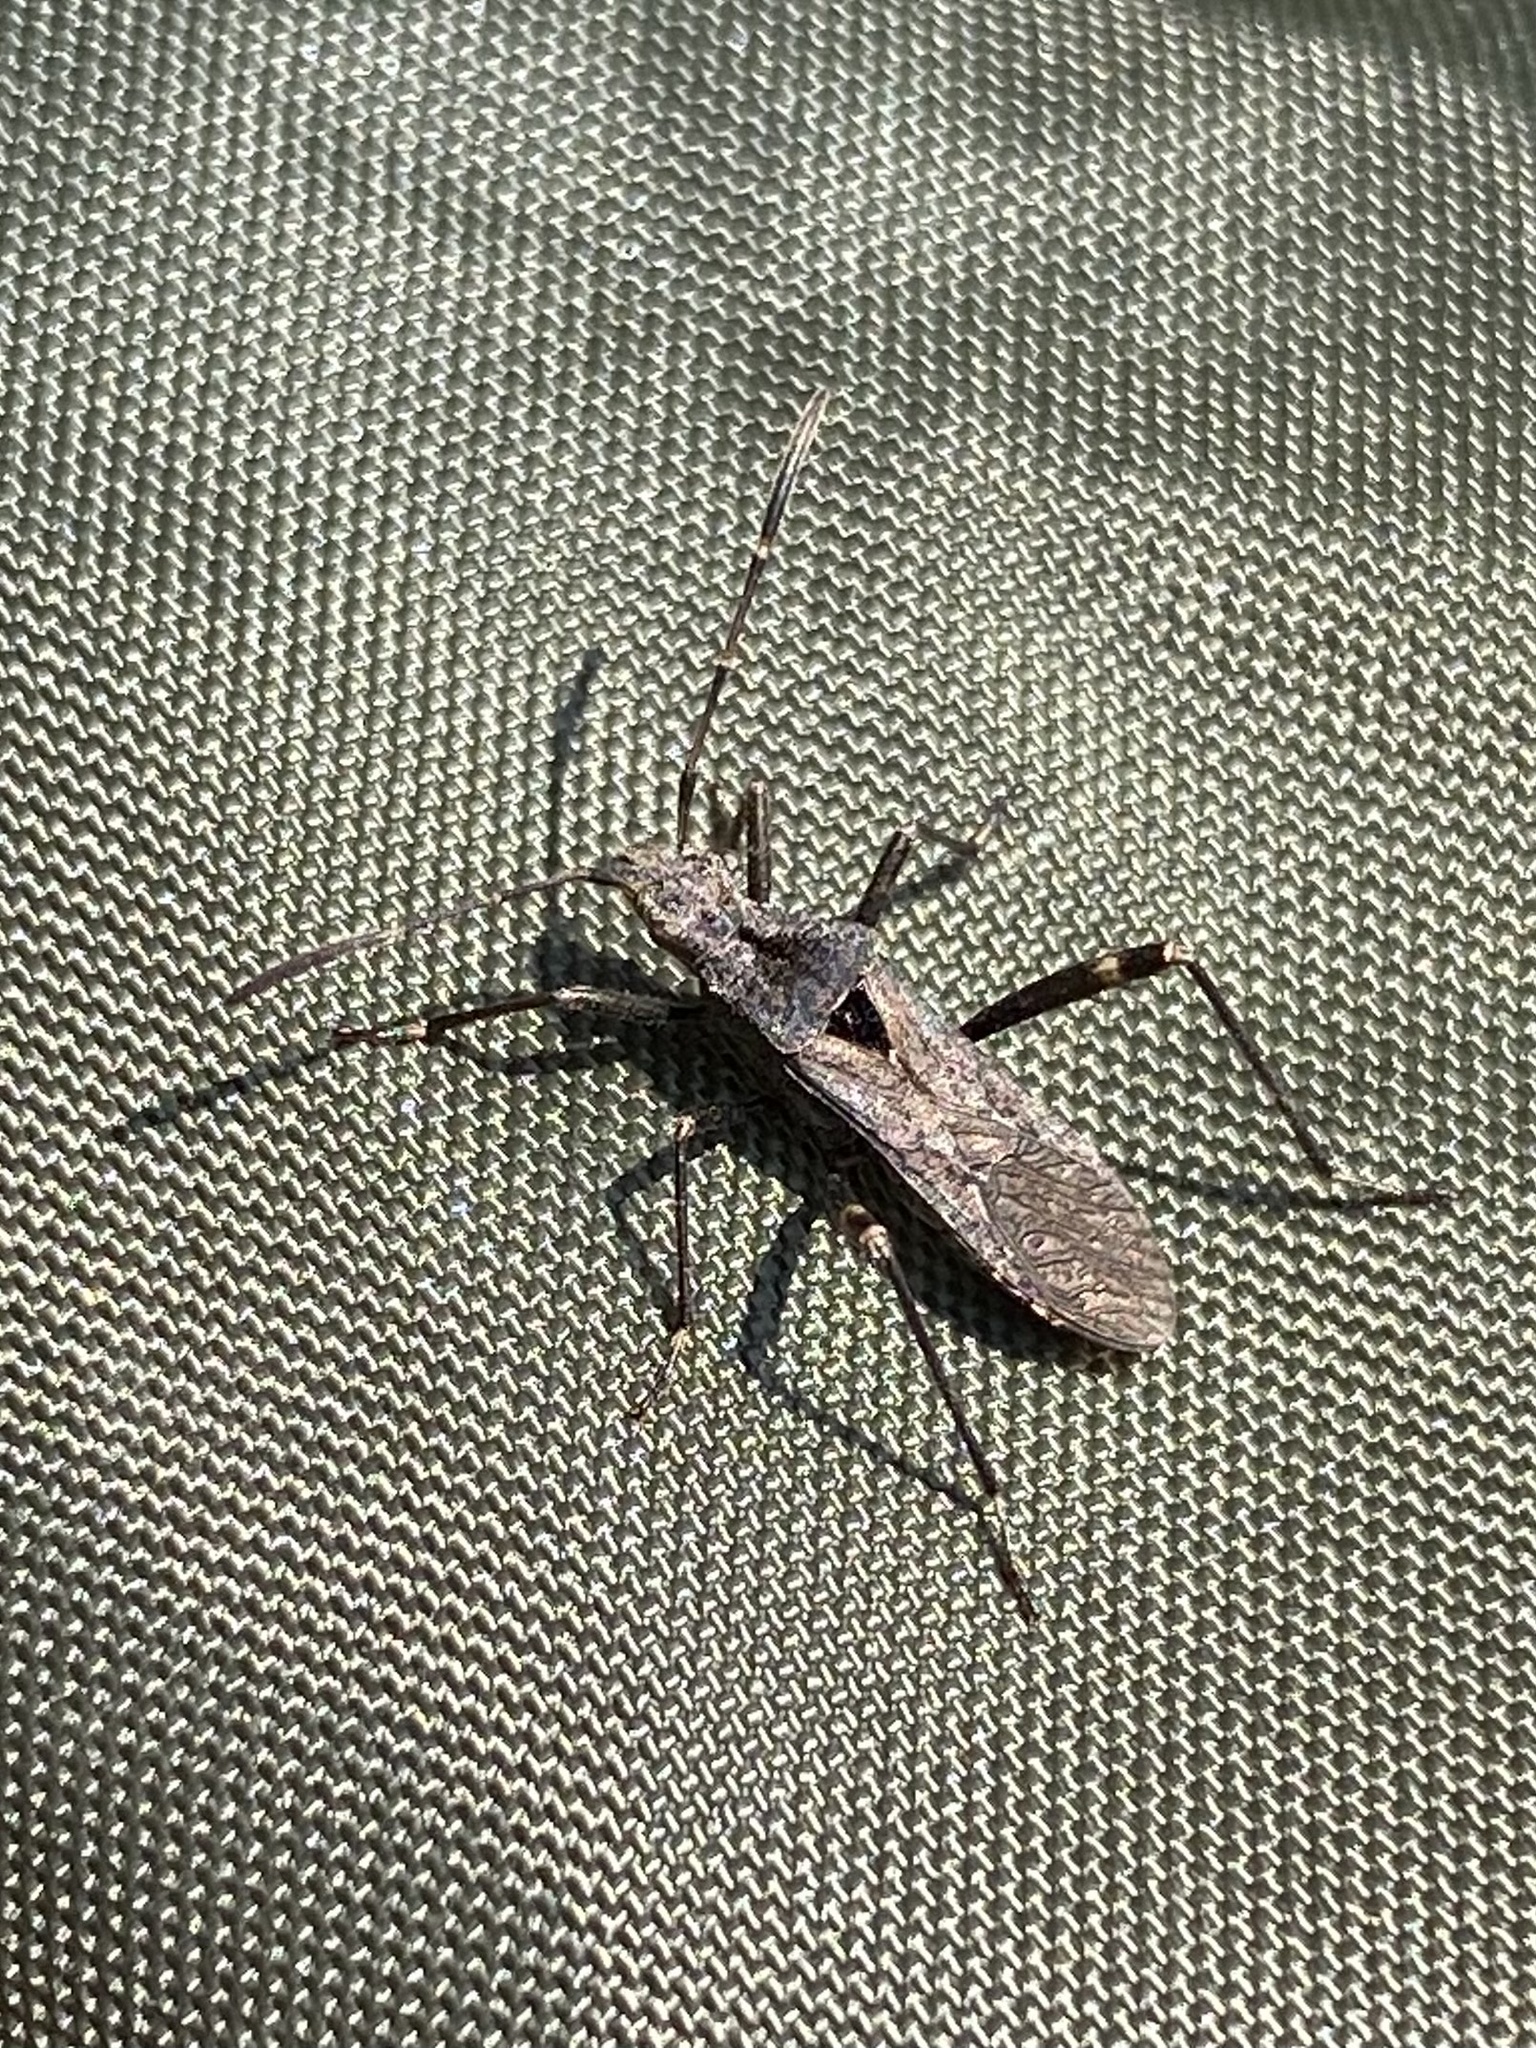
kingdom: Animalia
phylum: Arthropoda
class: Insecta
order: Hemiptera
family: Alydidae
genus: Alydus
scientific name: Alydus scutellatus
